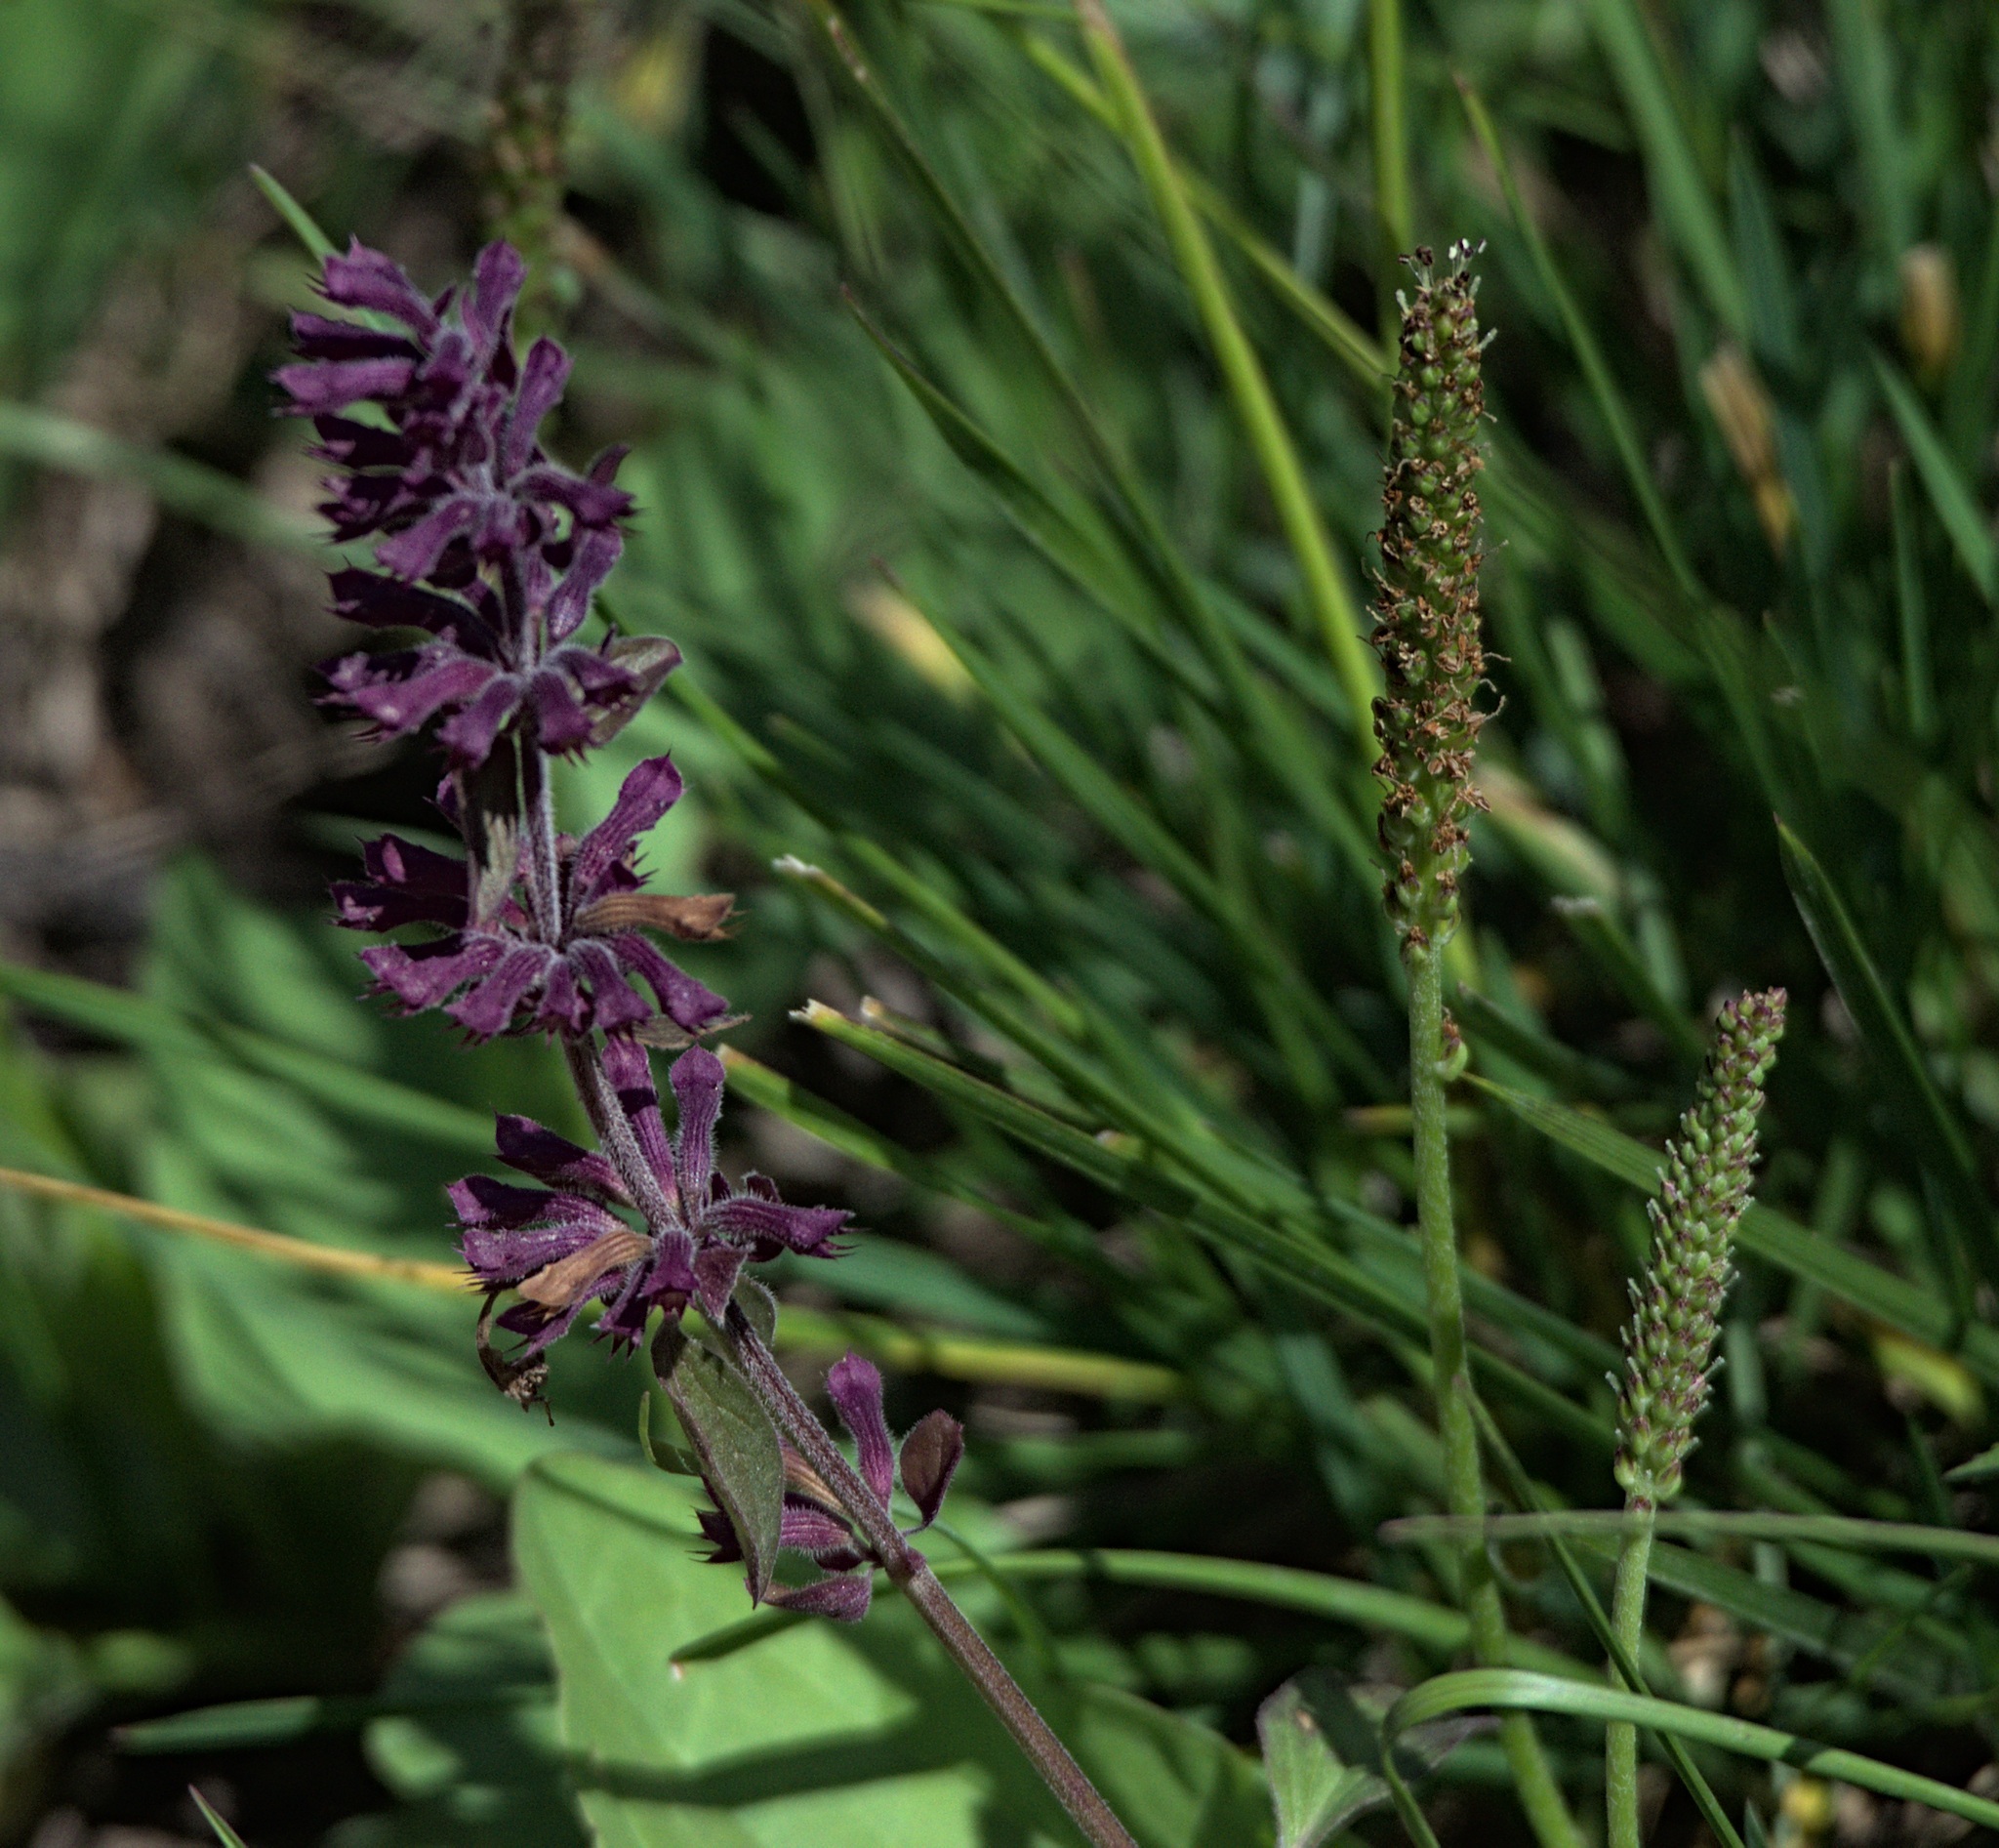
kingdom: Plantae
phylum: Tracheophyta
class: Magnoliopsida
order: Lamiales
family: Lamiaceae
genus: Dracocephalum
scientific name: Dracocephalum nutans
